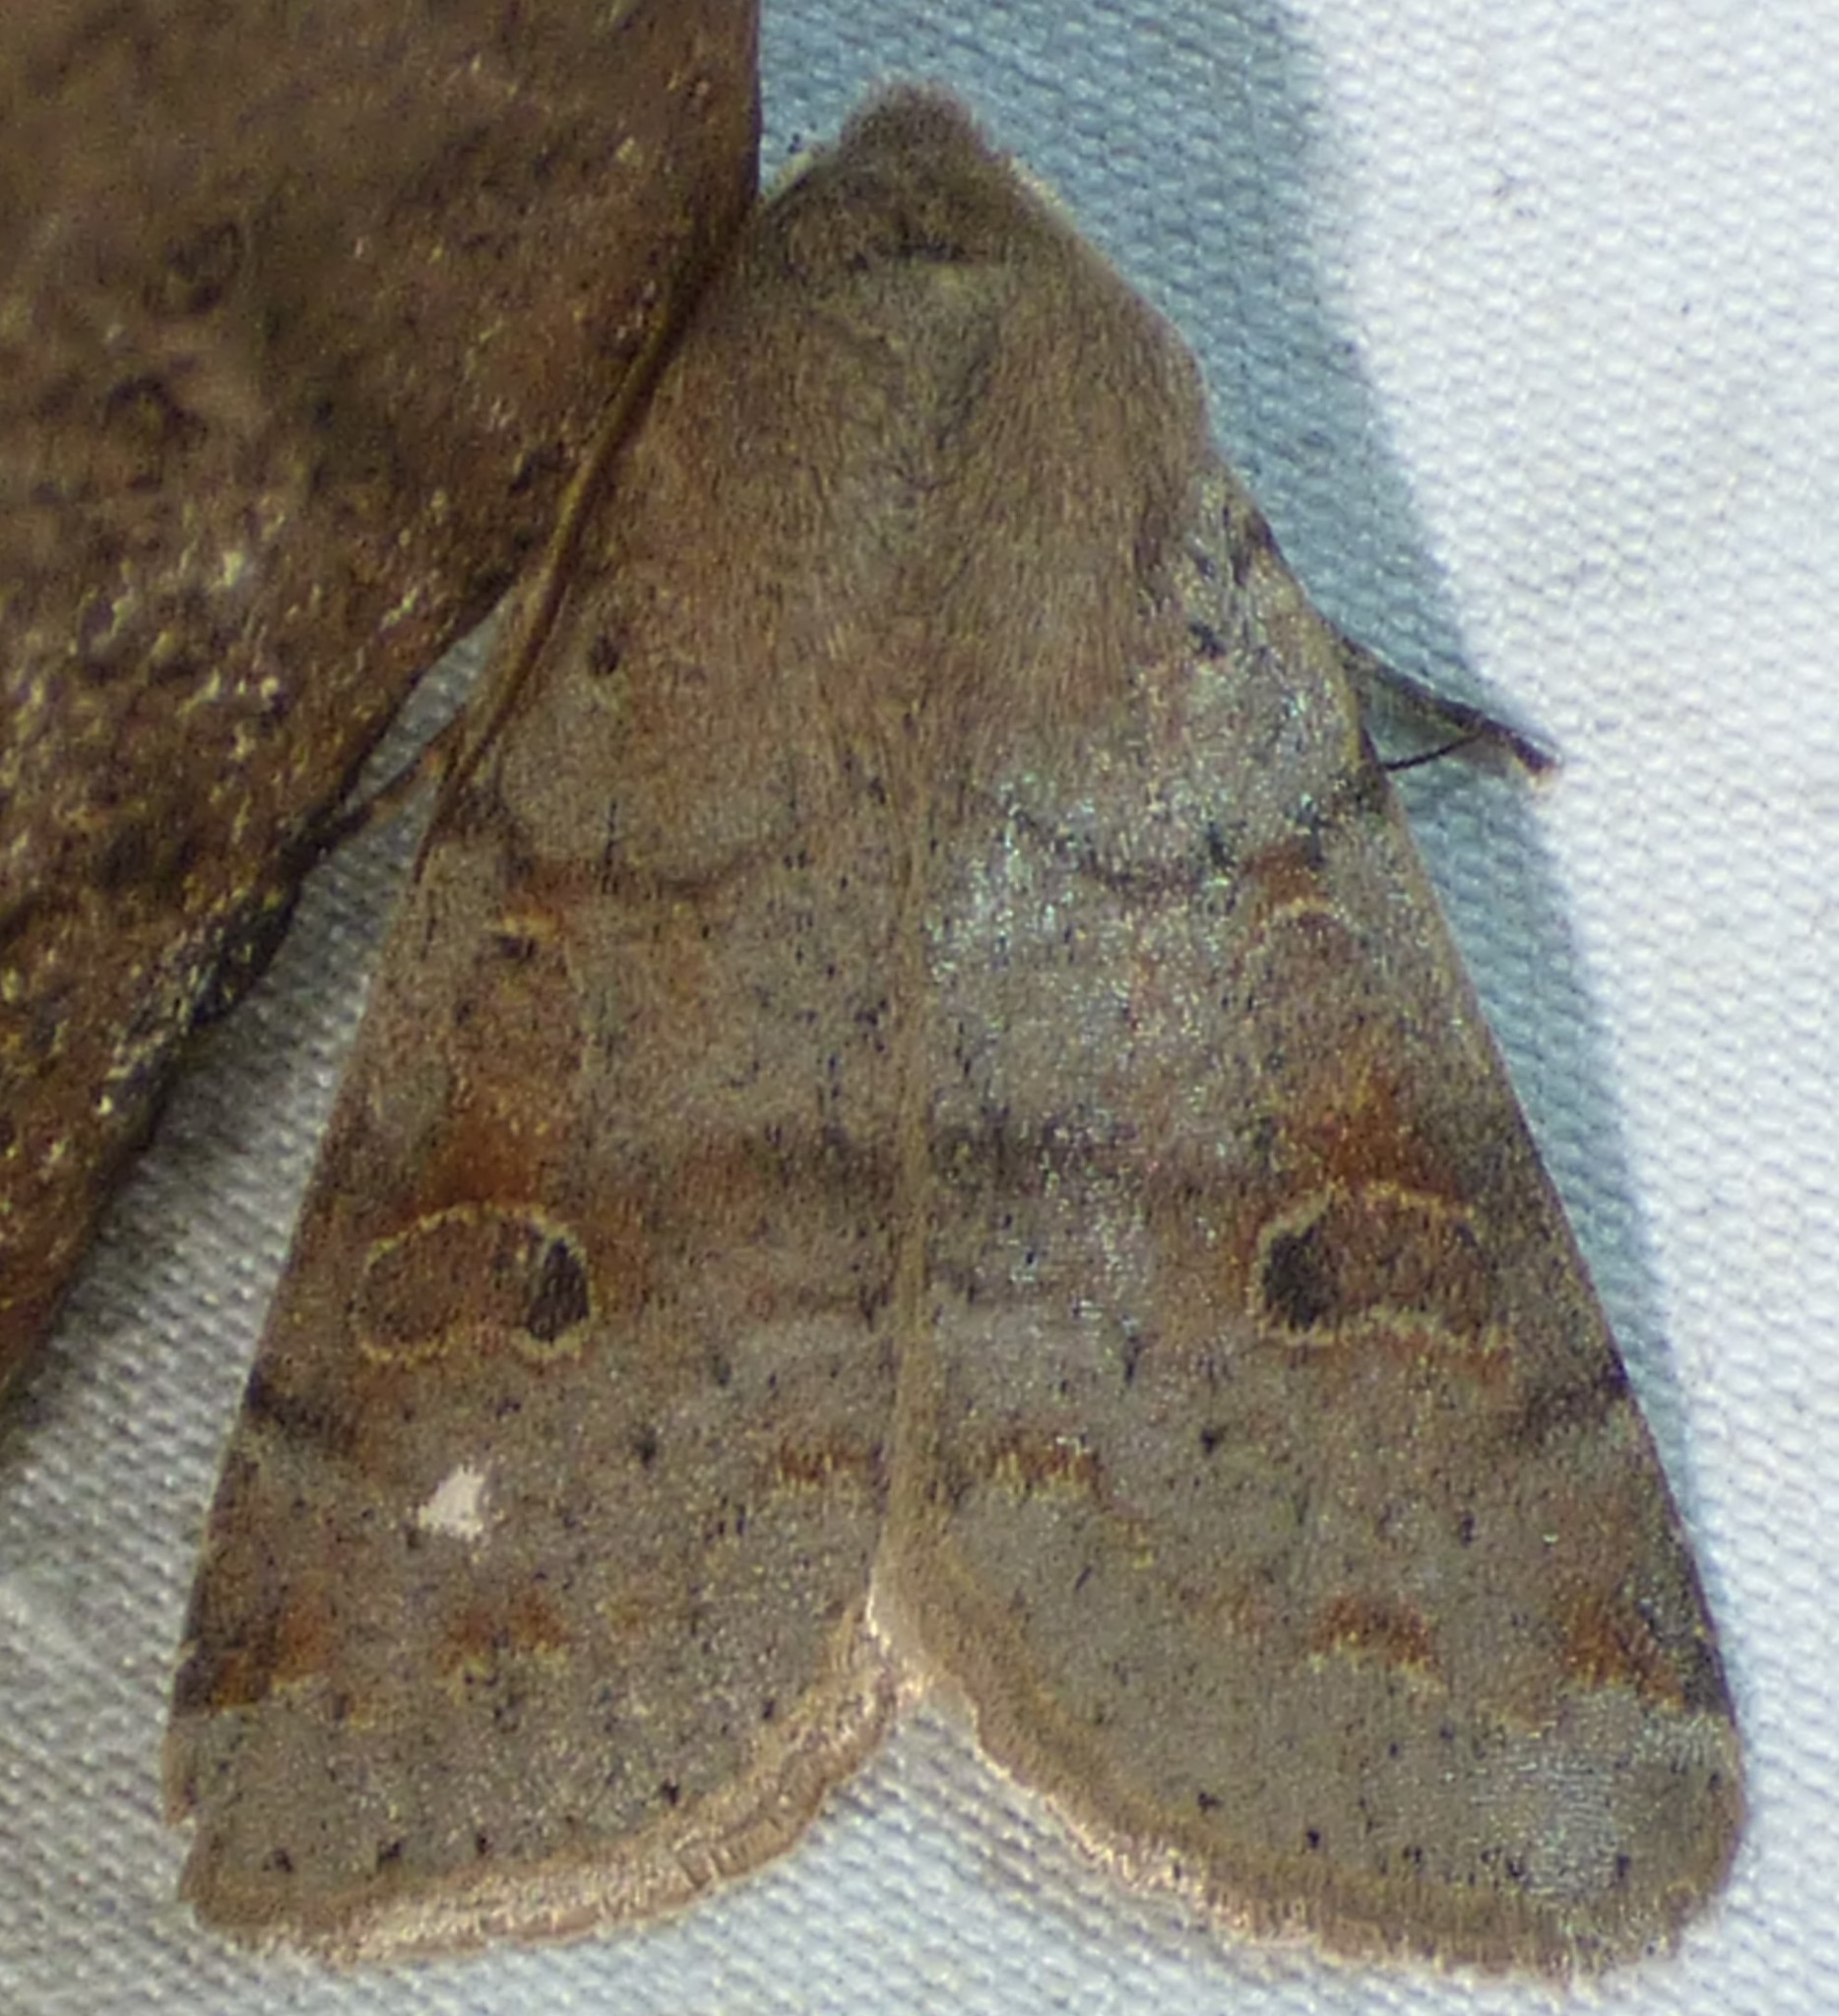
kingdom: Animalia
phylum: Arthropoda
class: Insecta
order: Lepidoptera
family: Noctuidae
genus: Orthosia
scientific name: Orthosia hibisci
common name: Green fruitworm
